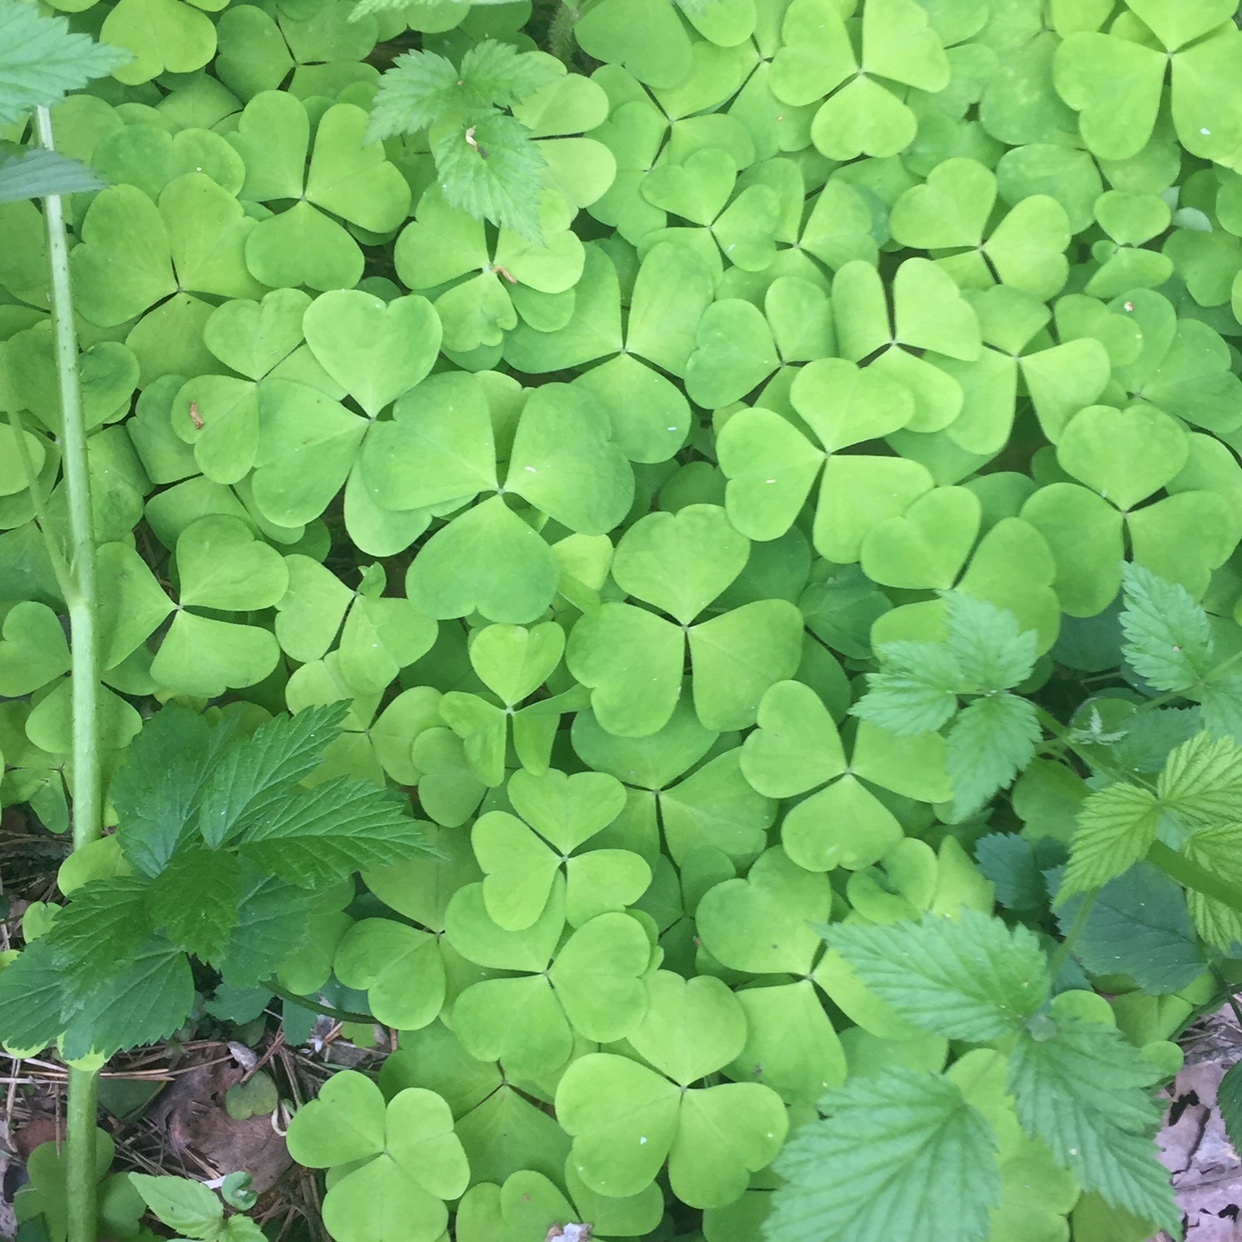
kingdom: Plantae
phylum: Tracheophyta
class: Magnoliopsida
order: Oxalidales
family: Oxalidaceae
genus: Oxalis
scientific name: Oxalis acetosella
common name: Wood-sorrel
